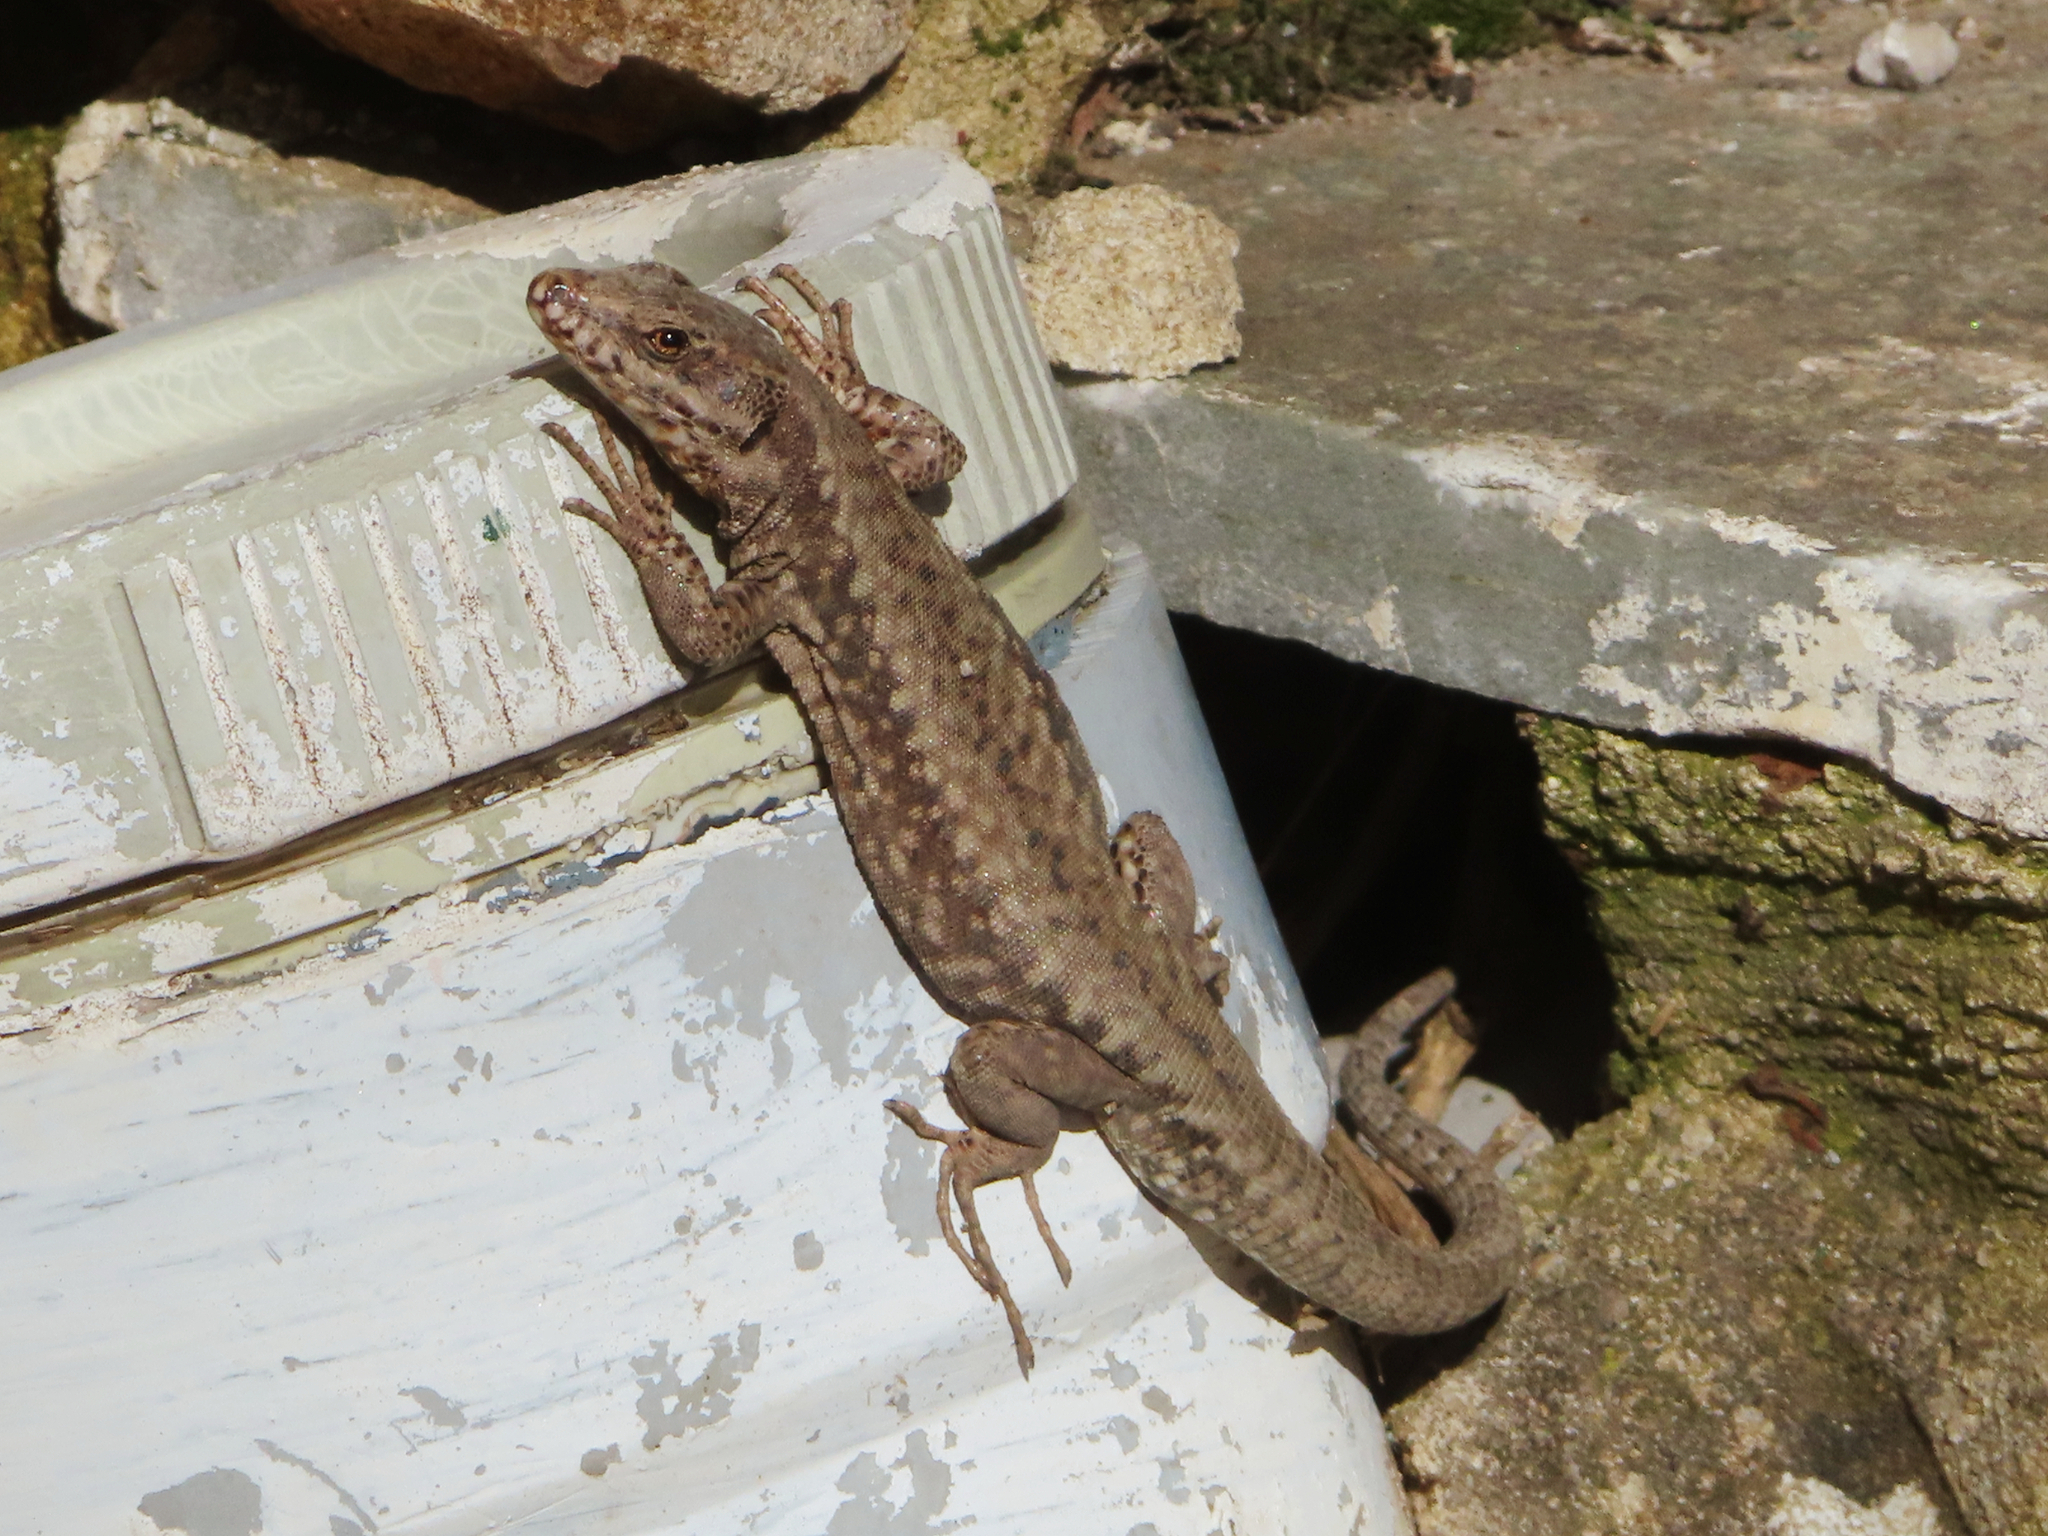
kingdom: Animalia
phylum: Chordata
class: Squamata
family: Lacertidae
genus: Podarcis
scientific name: Podarcis muralis
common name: Common wall lizard
